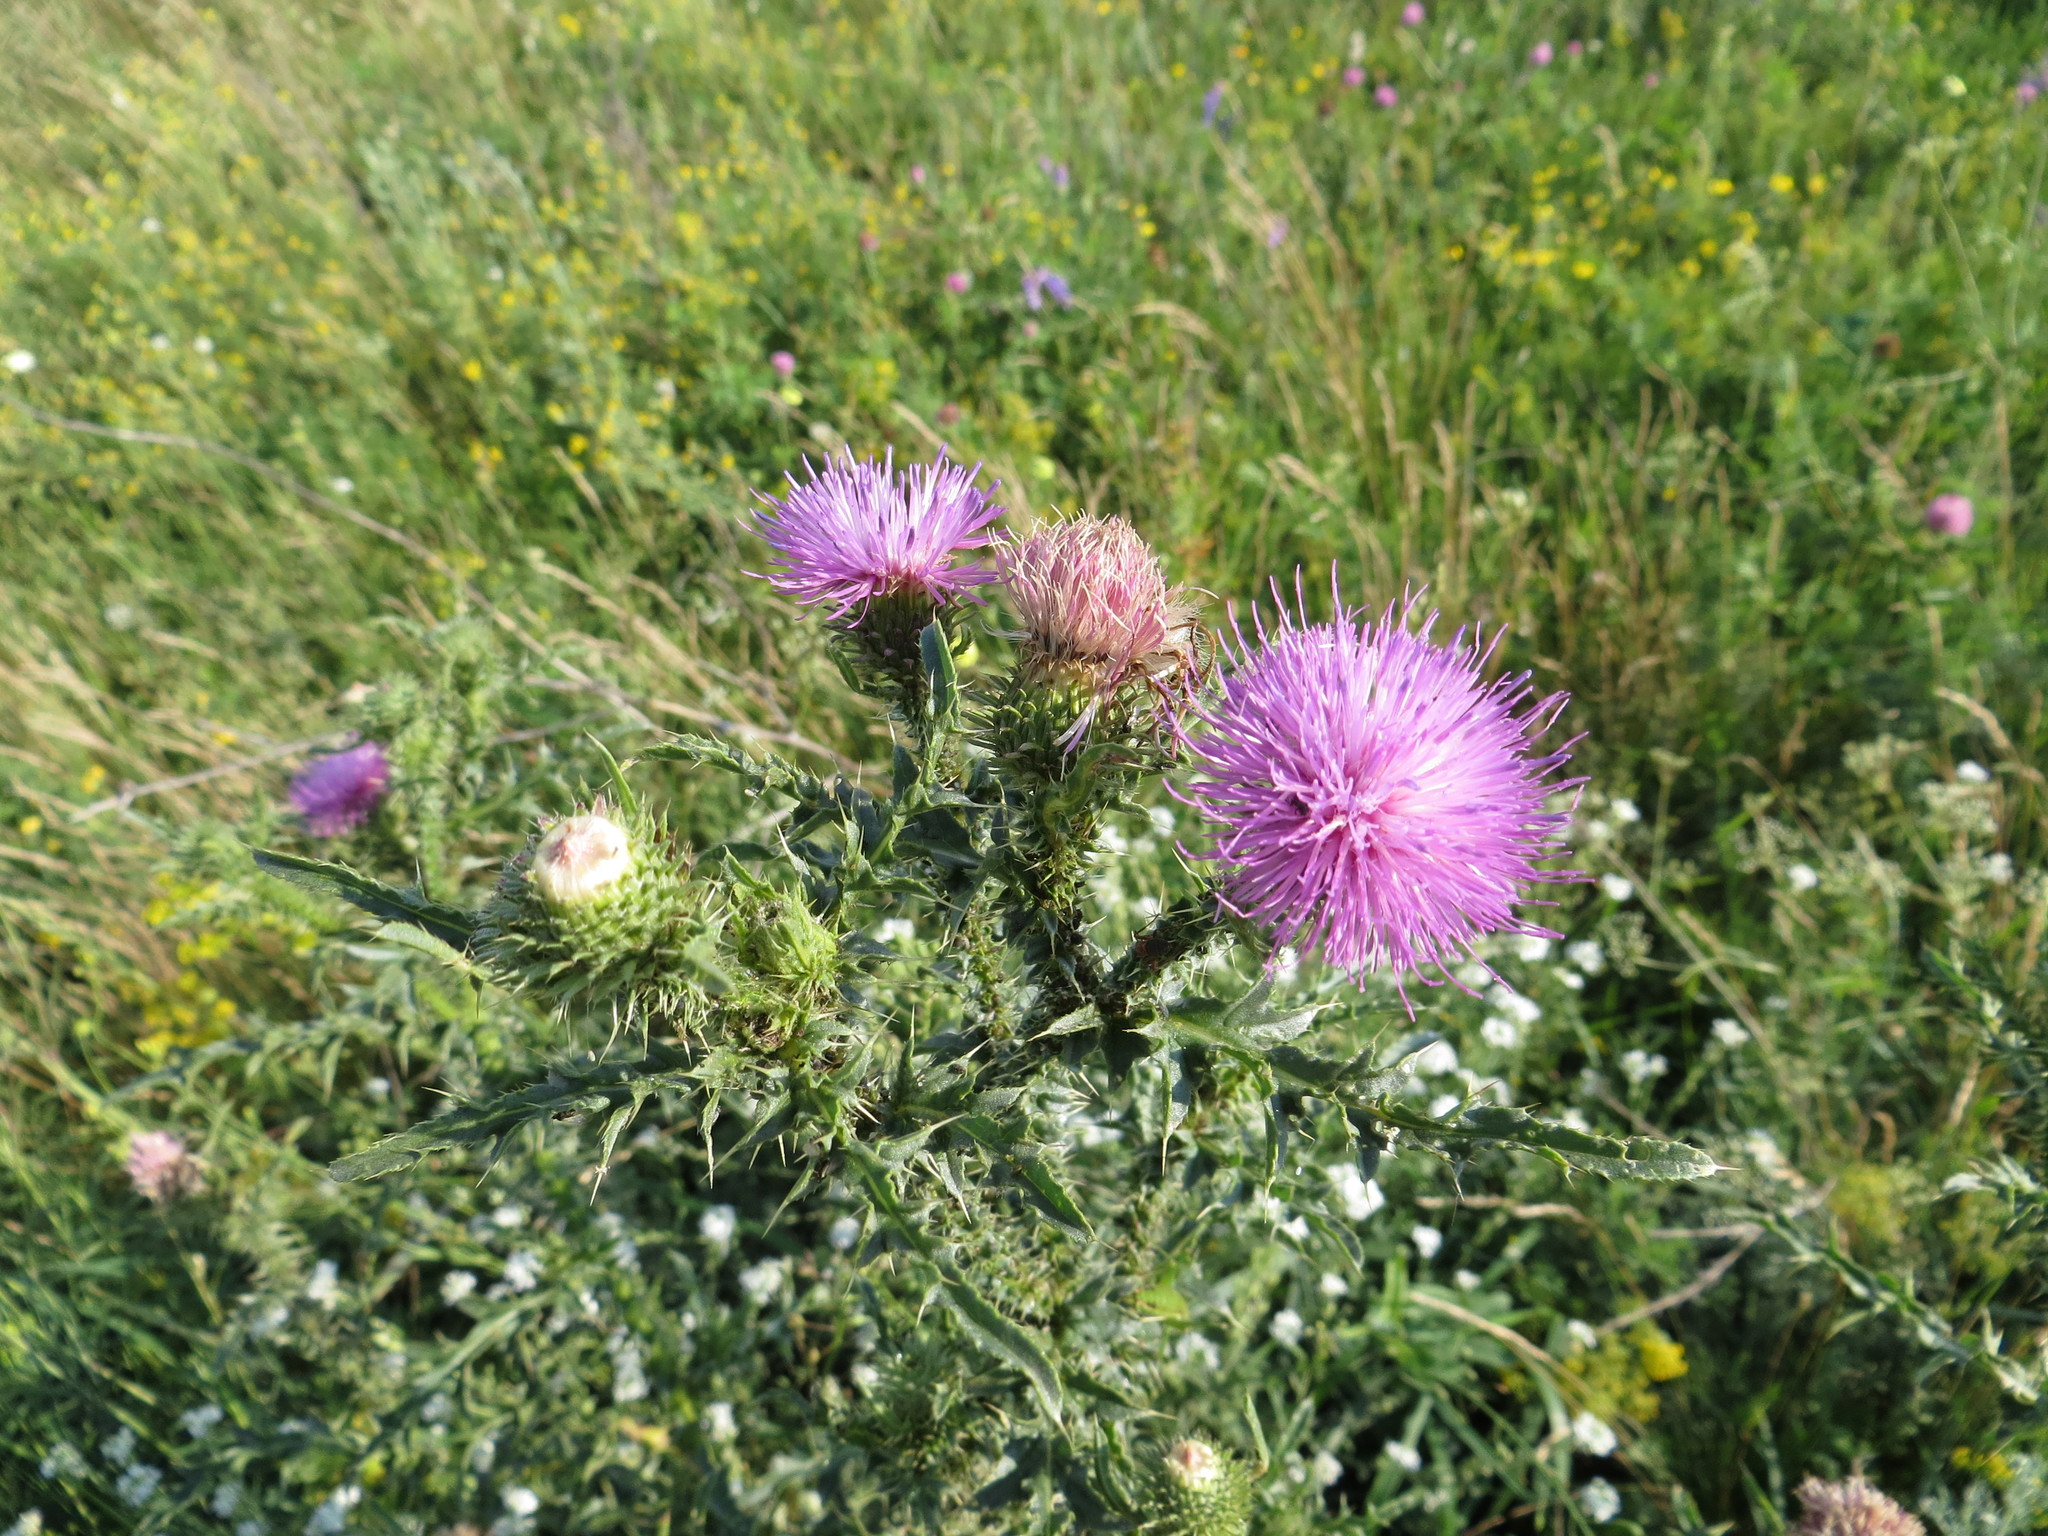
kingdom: Plantae
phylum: Tracheophyta
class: Magnoliopsida
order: Asterales
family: Asteraceae
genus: Carduus
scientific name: Carduus acanthoides
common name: Plumeless thistle
